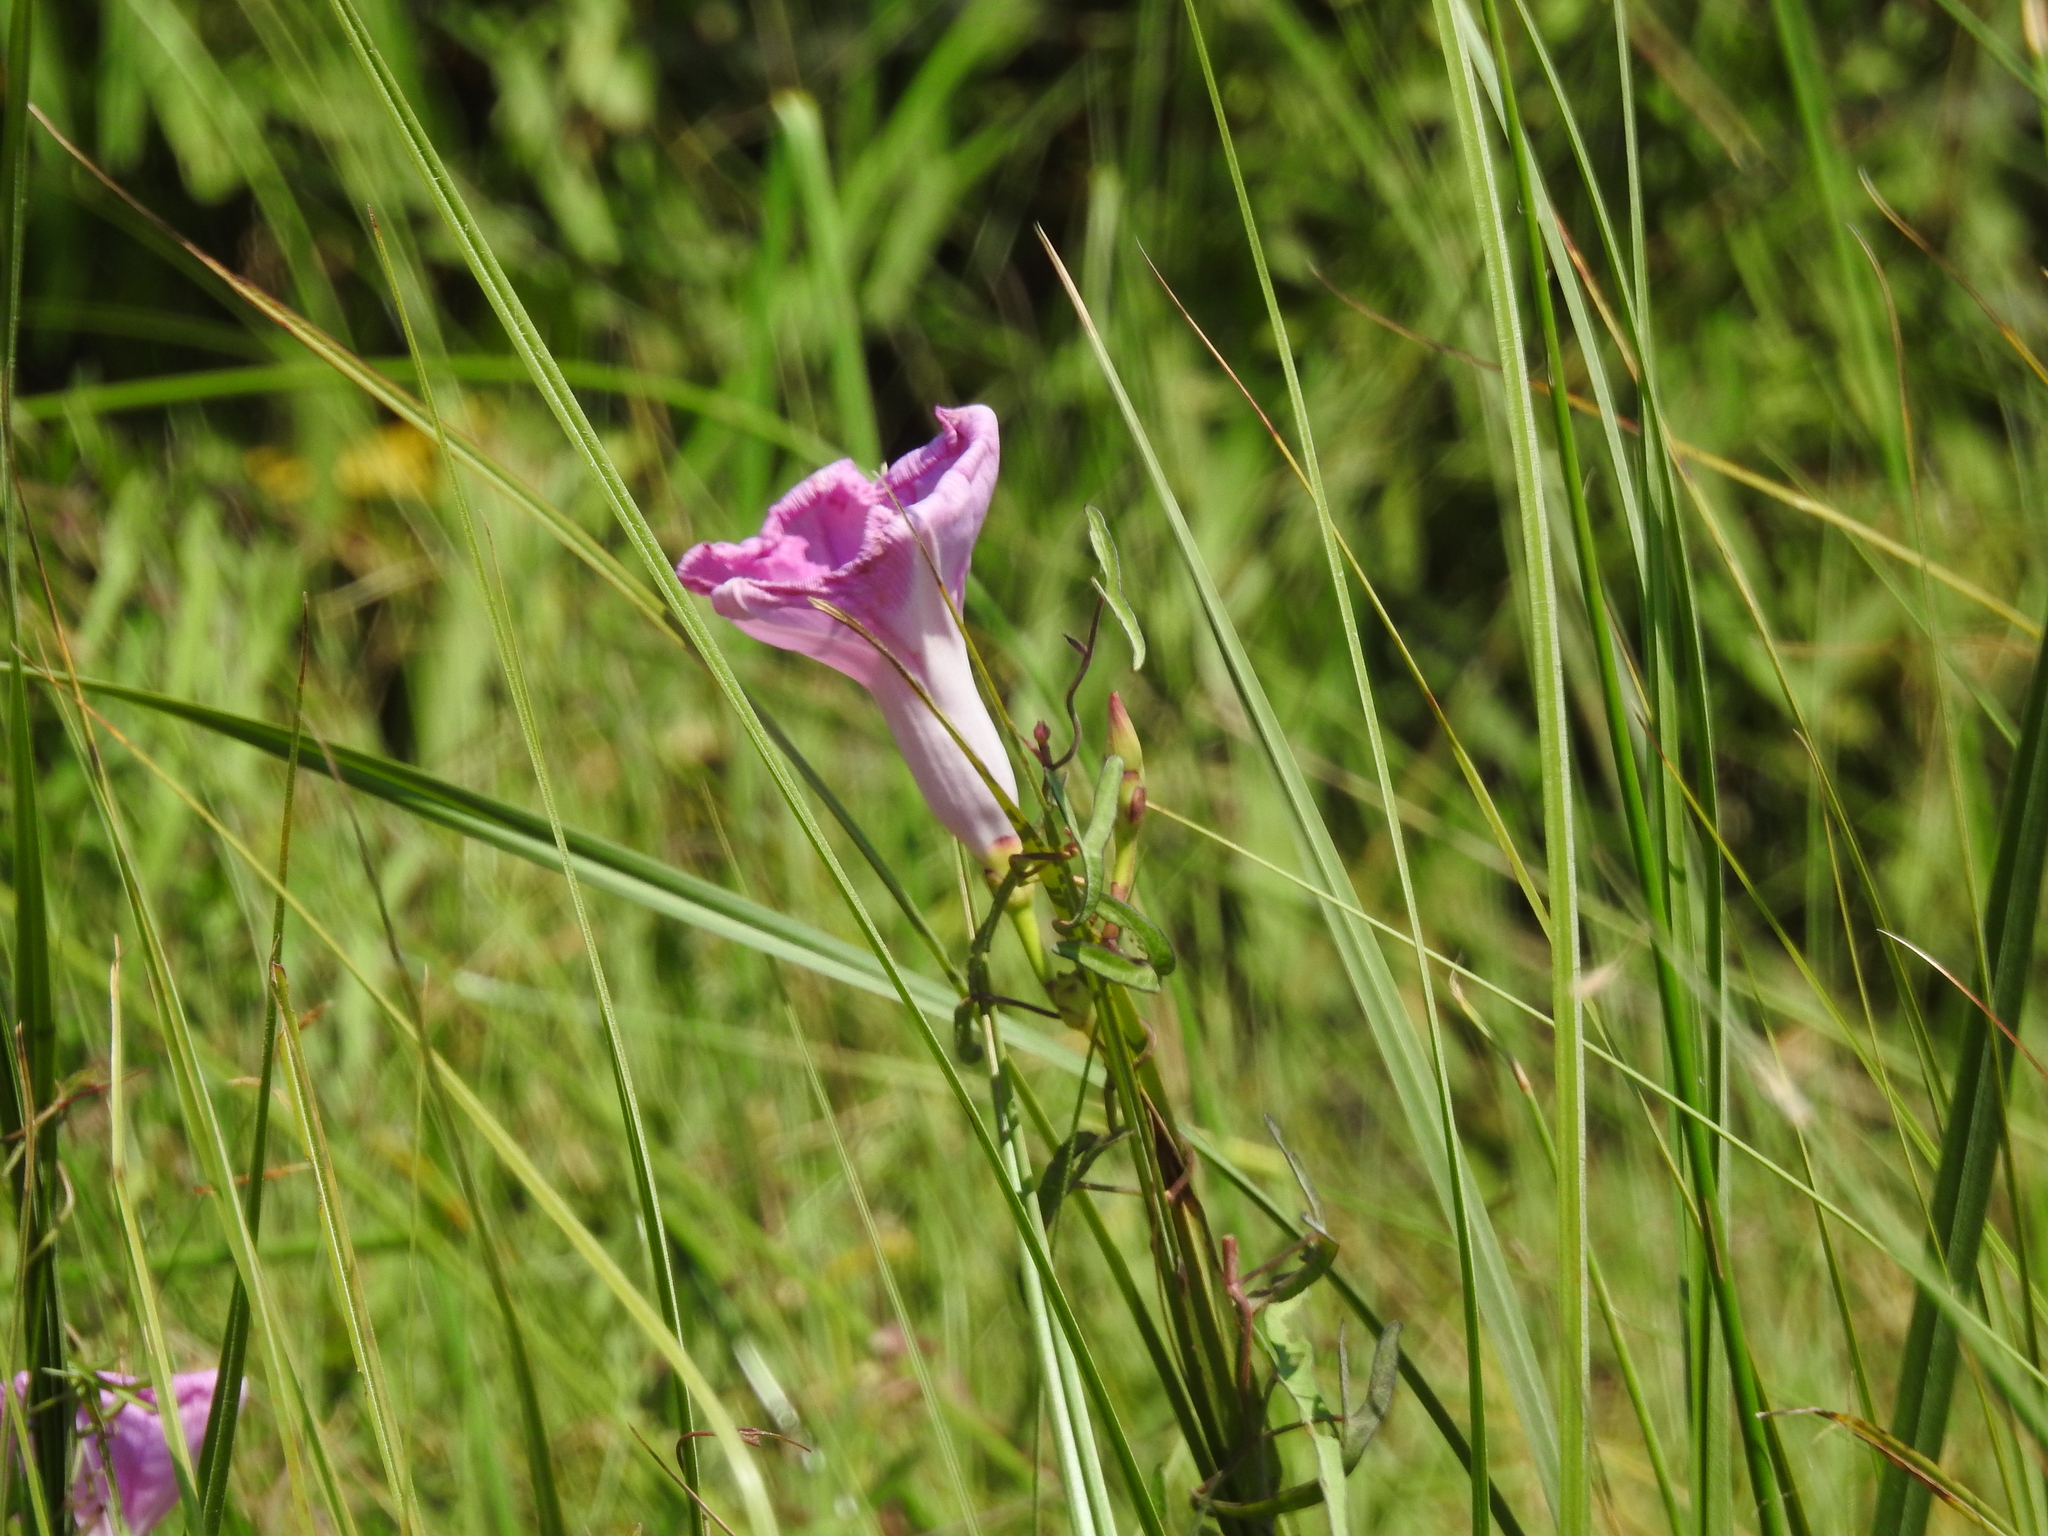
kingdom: Plantae
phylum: Tracheophyta
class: Magnoliopsida
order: Solanales
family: Convolvulaceae
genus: Ipomoea
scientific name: Ipomoea cordatotriloba
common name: Cotton morning glory
